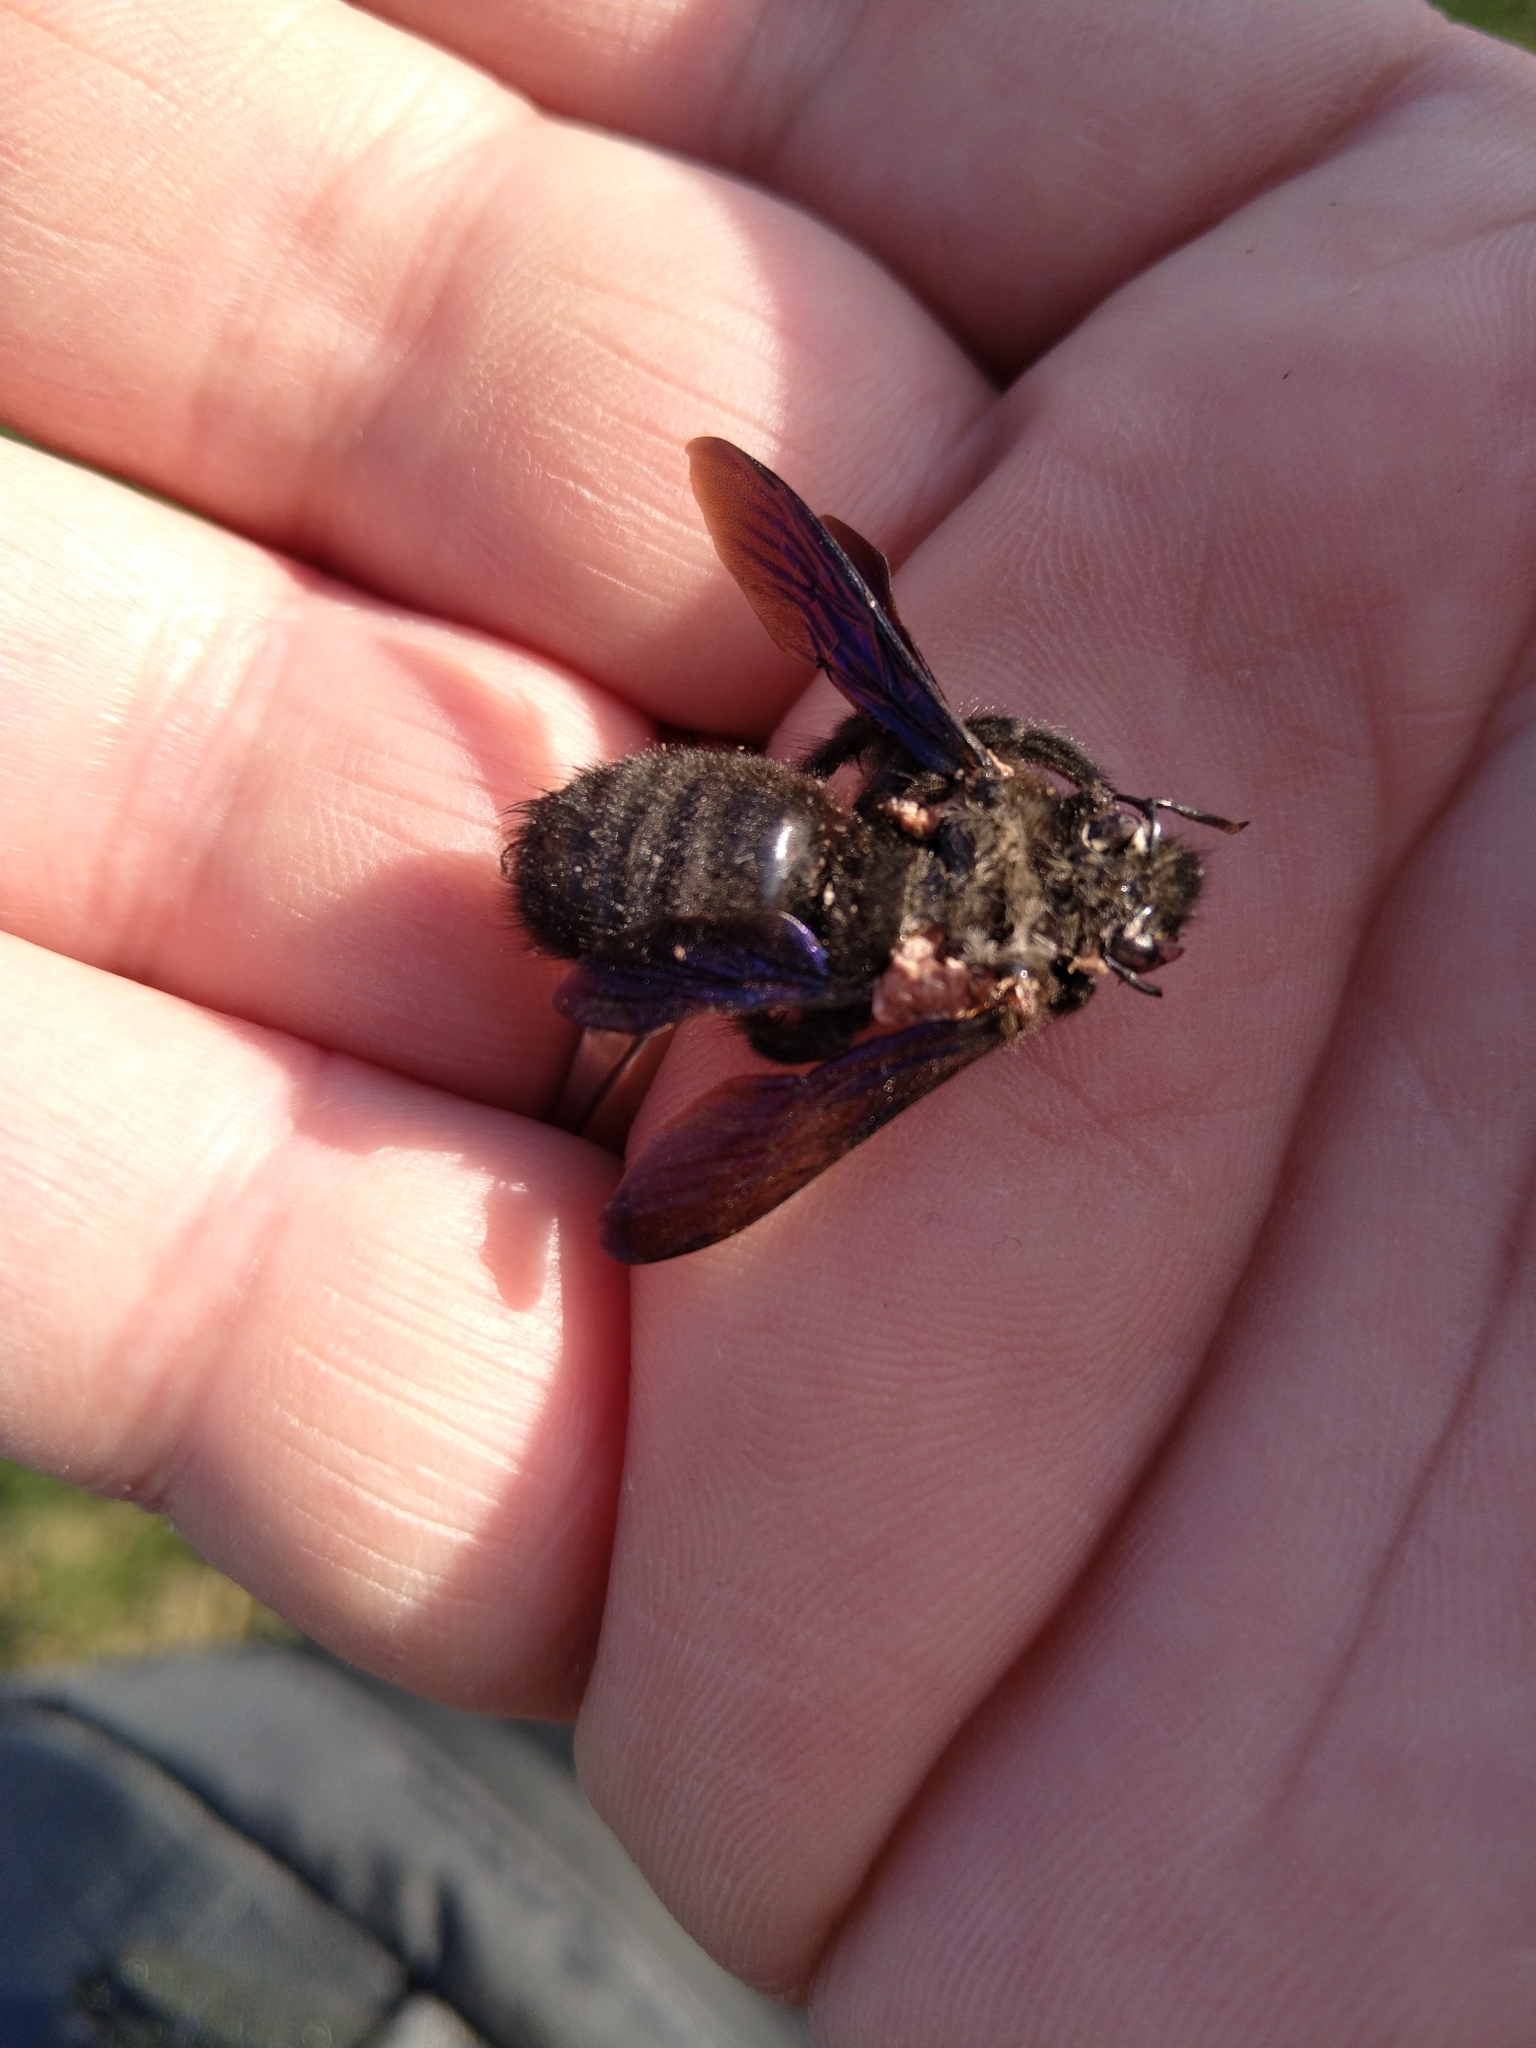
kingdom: Animalia
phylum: Arthropoda
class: Insecta
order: Hymenoptera
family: Apidae
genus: Xylocopa
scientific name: Xylocopa violacea
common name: Violet carpenter bee
